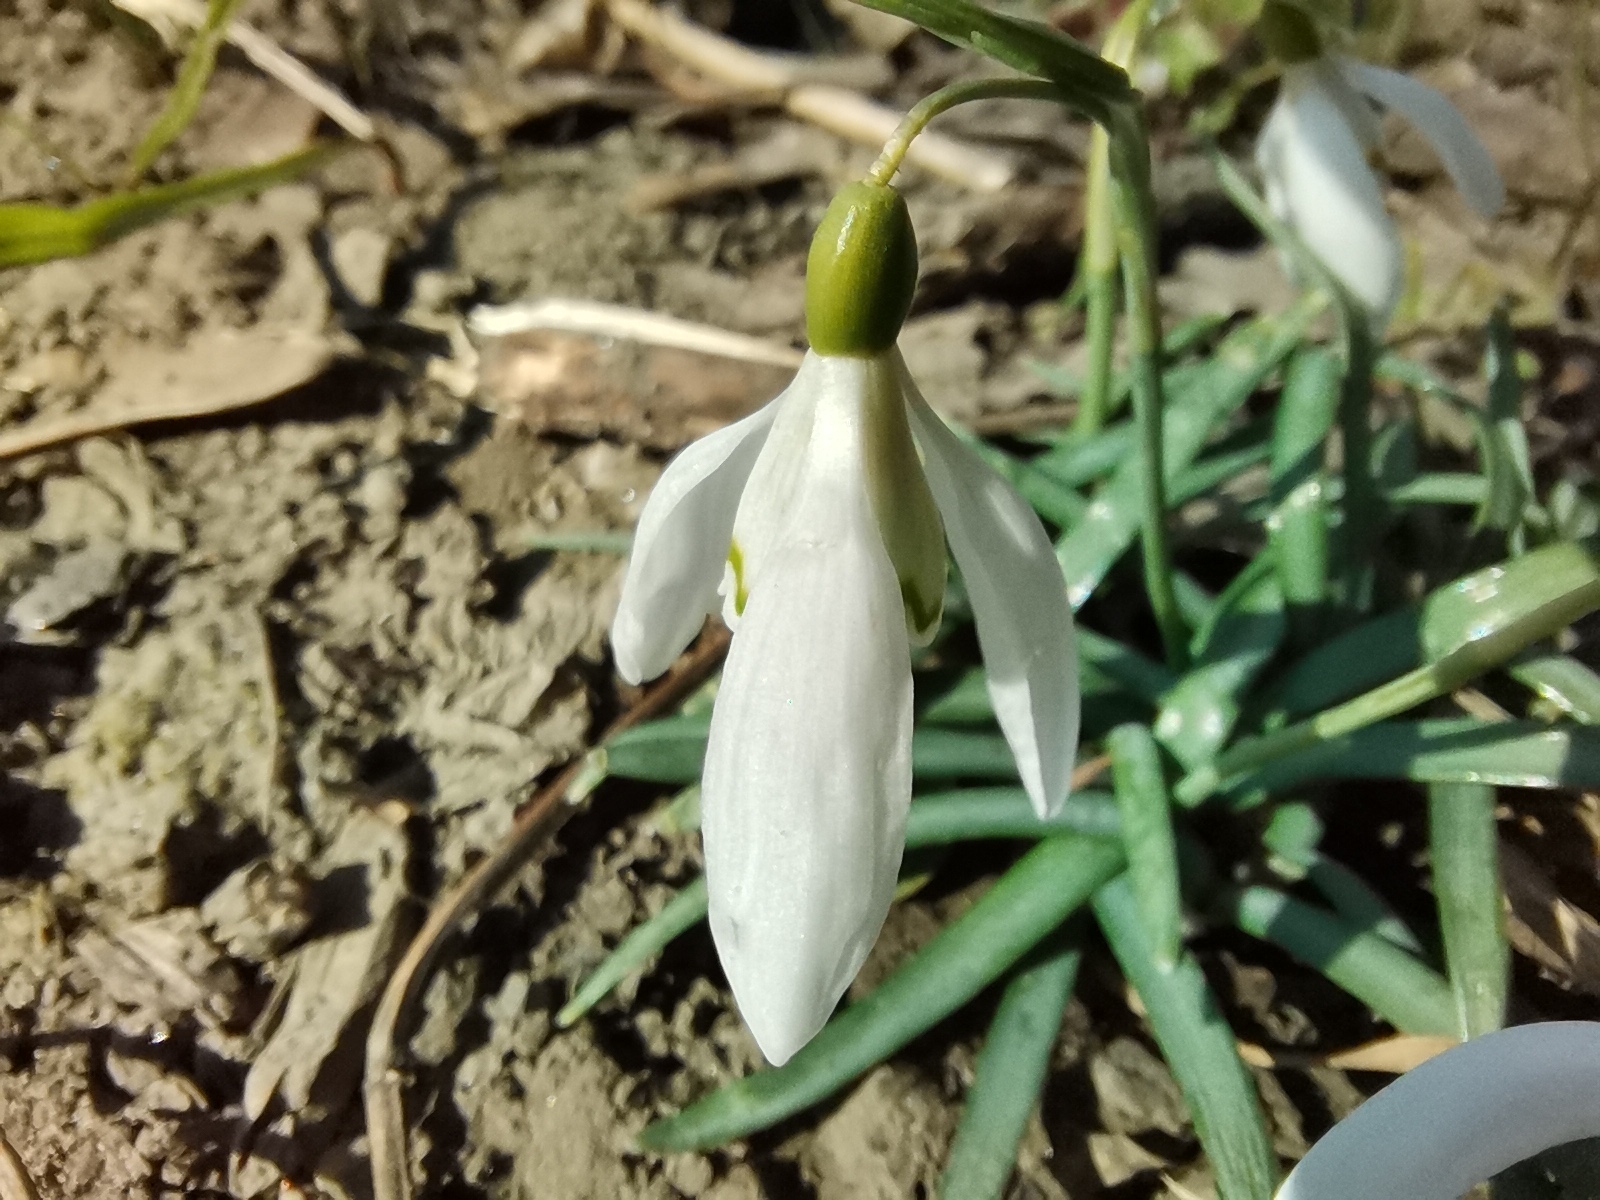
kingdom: Plantae
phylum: Tracheophyta
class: Liliopsida
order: Asparagales
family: Amaryllidaceae
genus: Galanthus
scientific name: Galanthus nivalis
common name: Snowdrop
